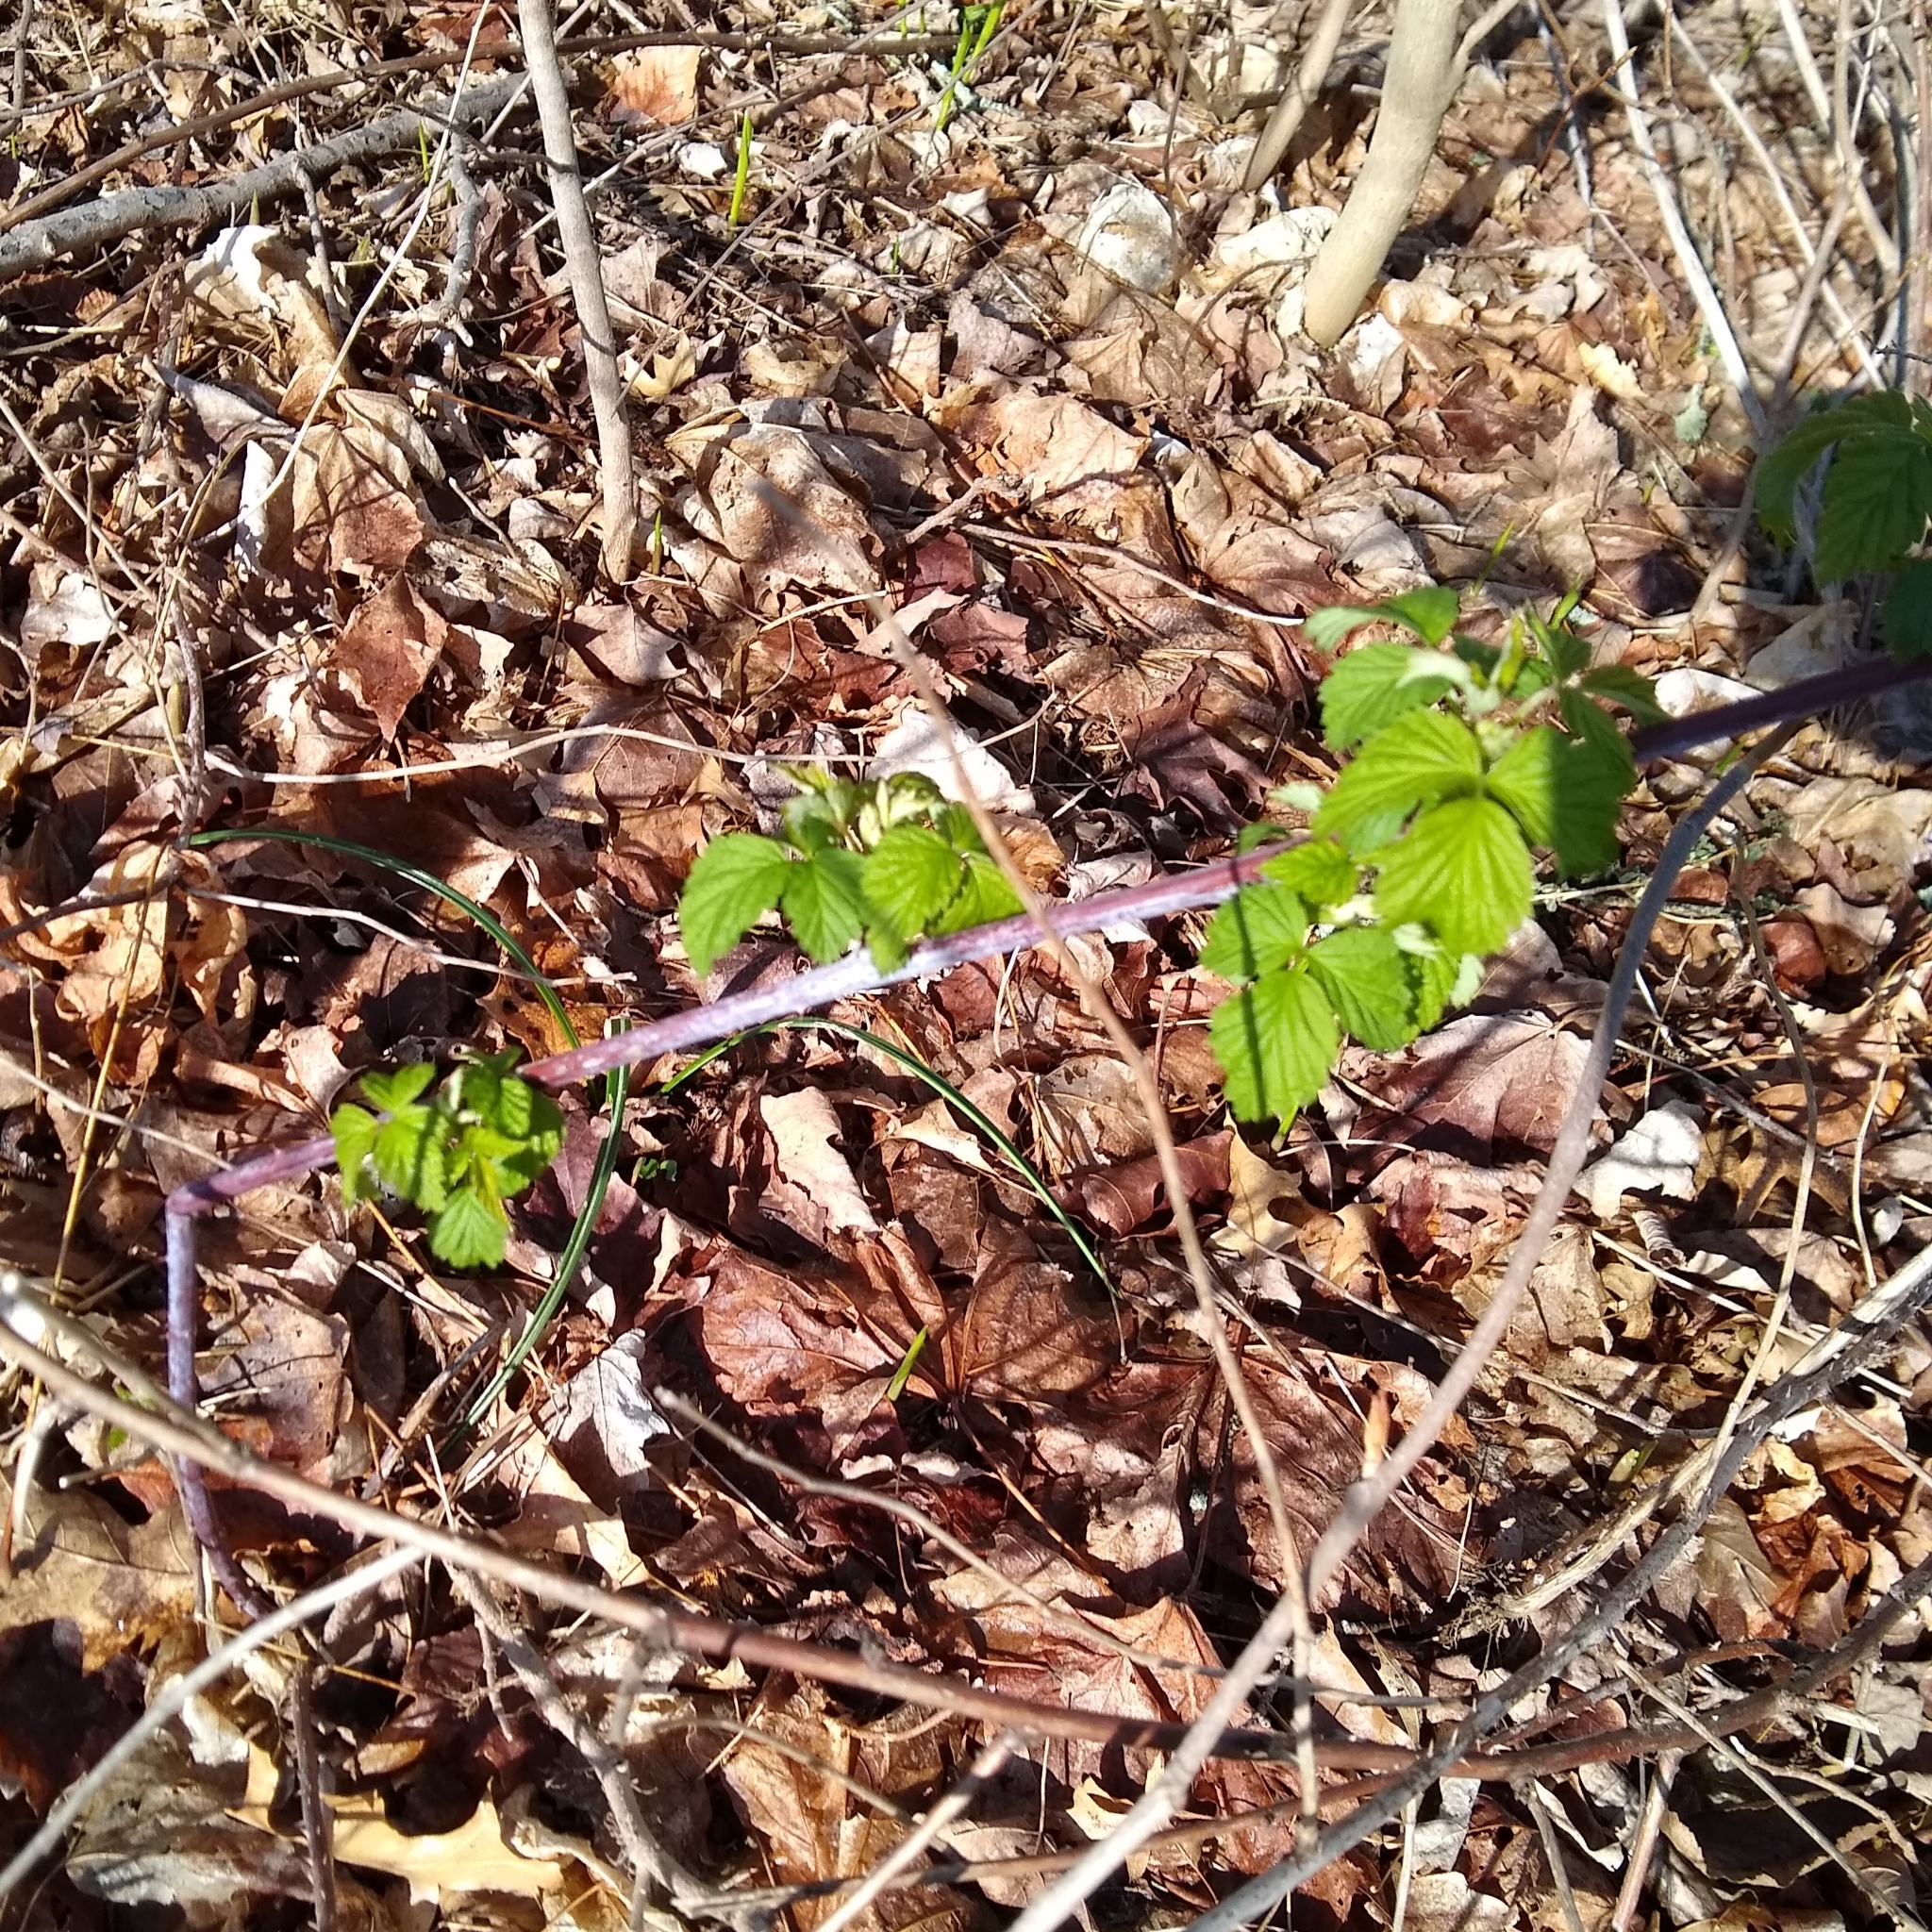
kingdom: Plantae
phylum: Tracheophyta
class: Magnoliopsida
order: Rosales
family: Rosaceae
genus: Rubus
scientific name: Rubus occidentalis
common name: Black raspberry
